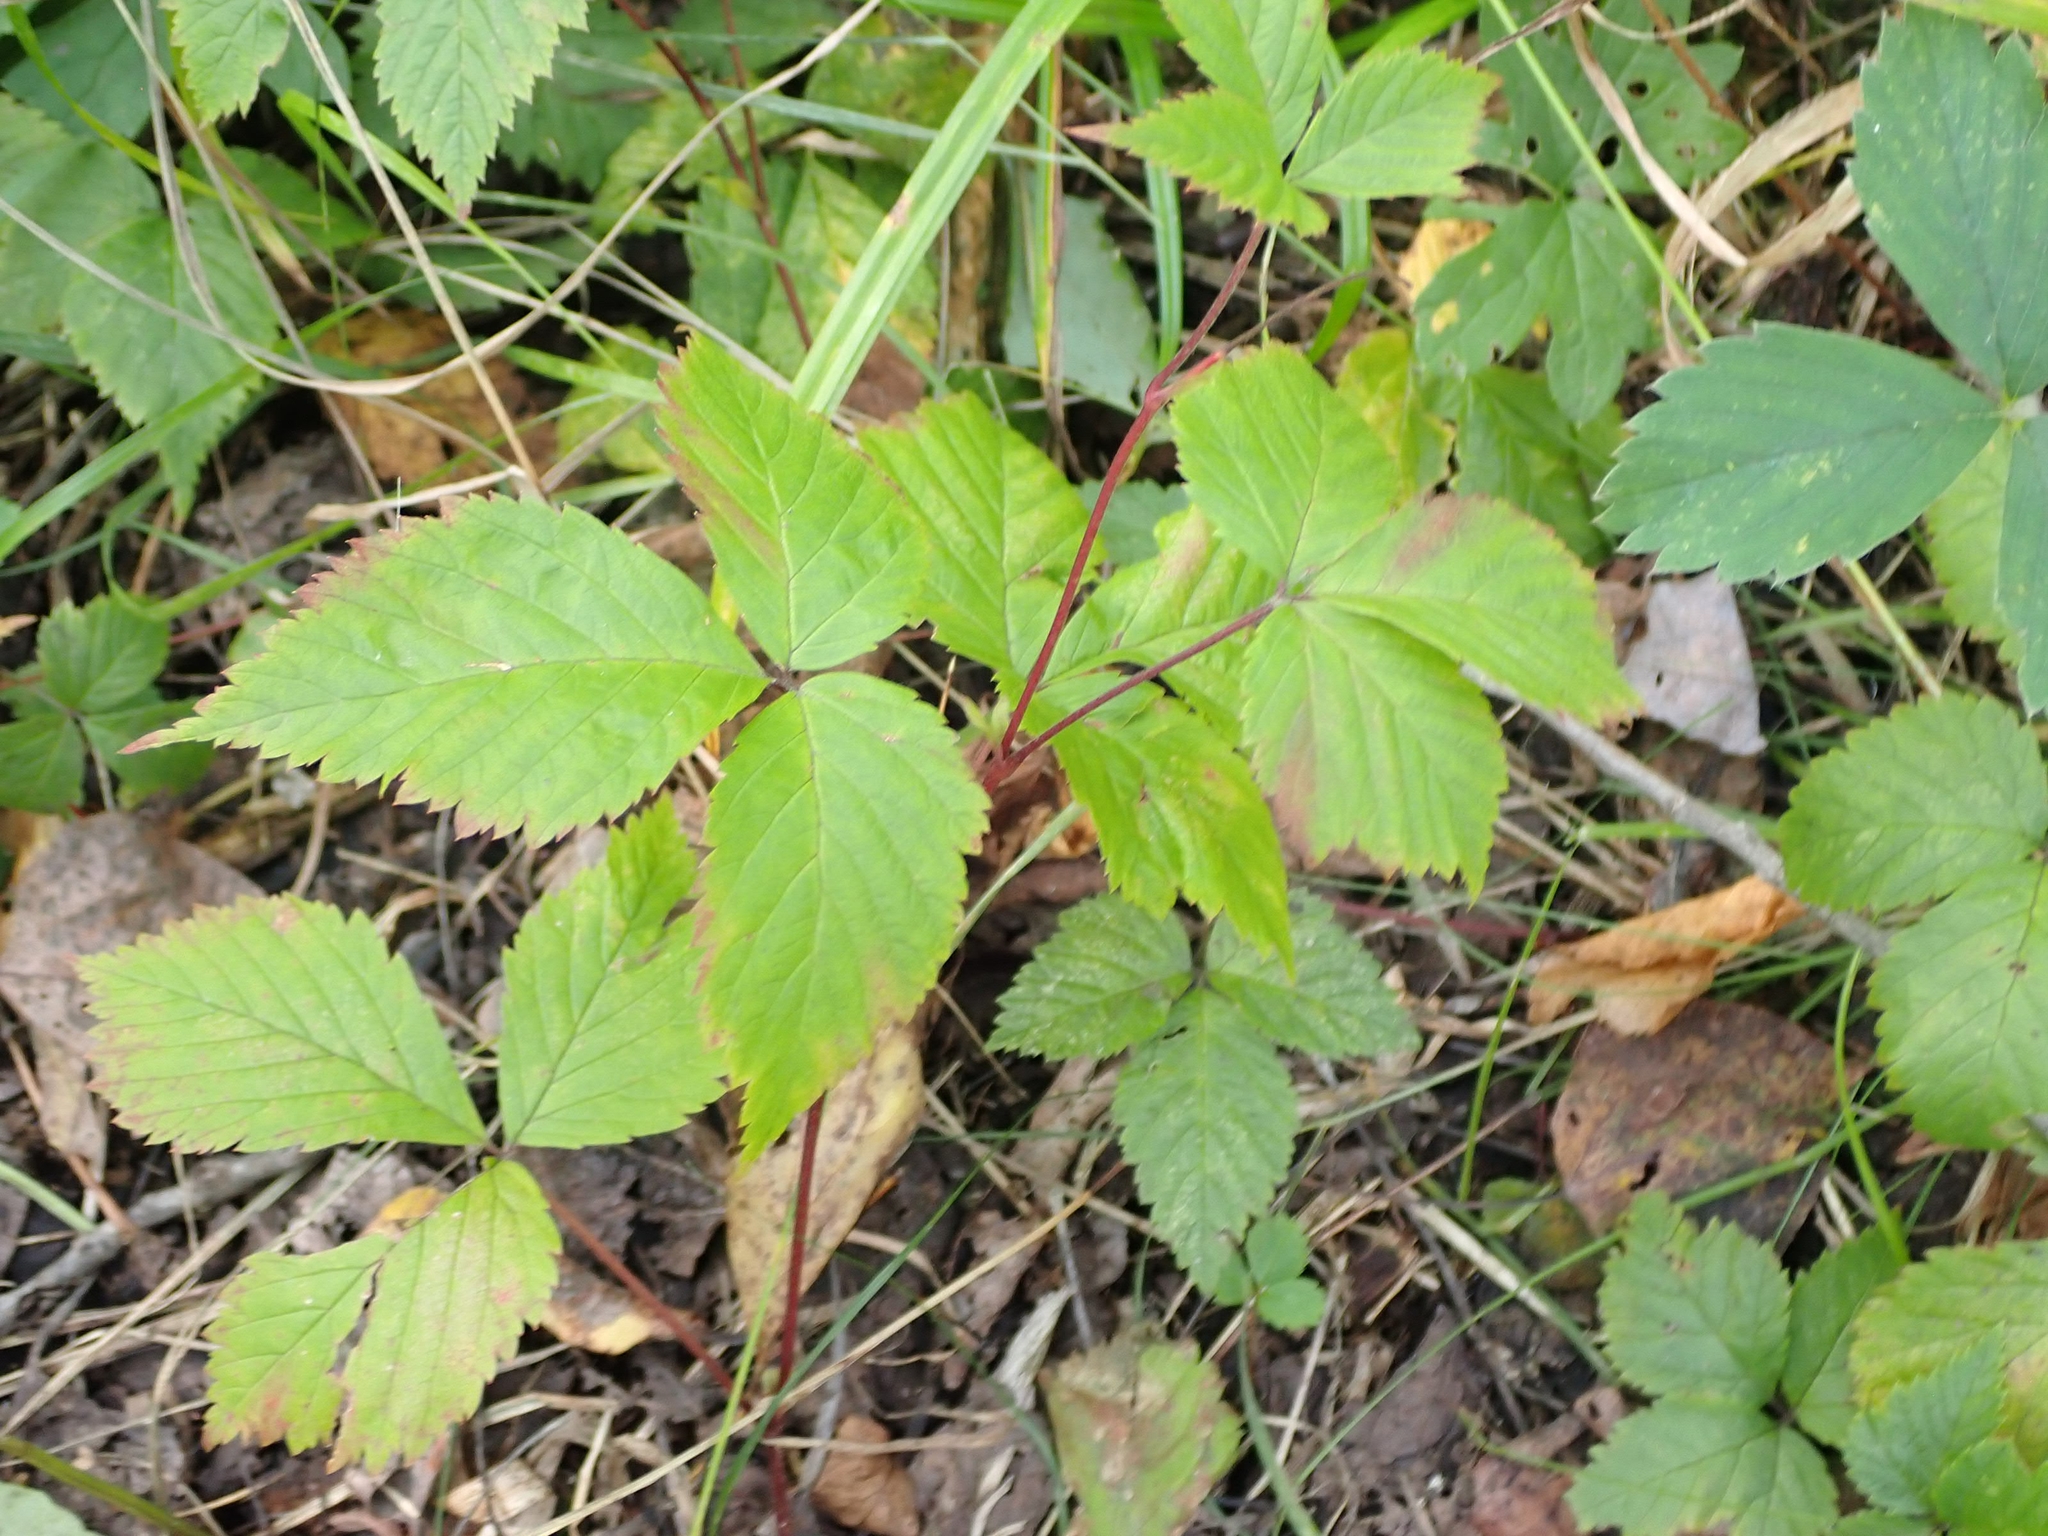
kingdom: Plantae
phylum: Tracheophyta
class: Magnoliopsida
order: Rosales
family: Rosaceae
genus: Rubus
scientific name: Rubus pubescens
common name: Dwarf raspberry
